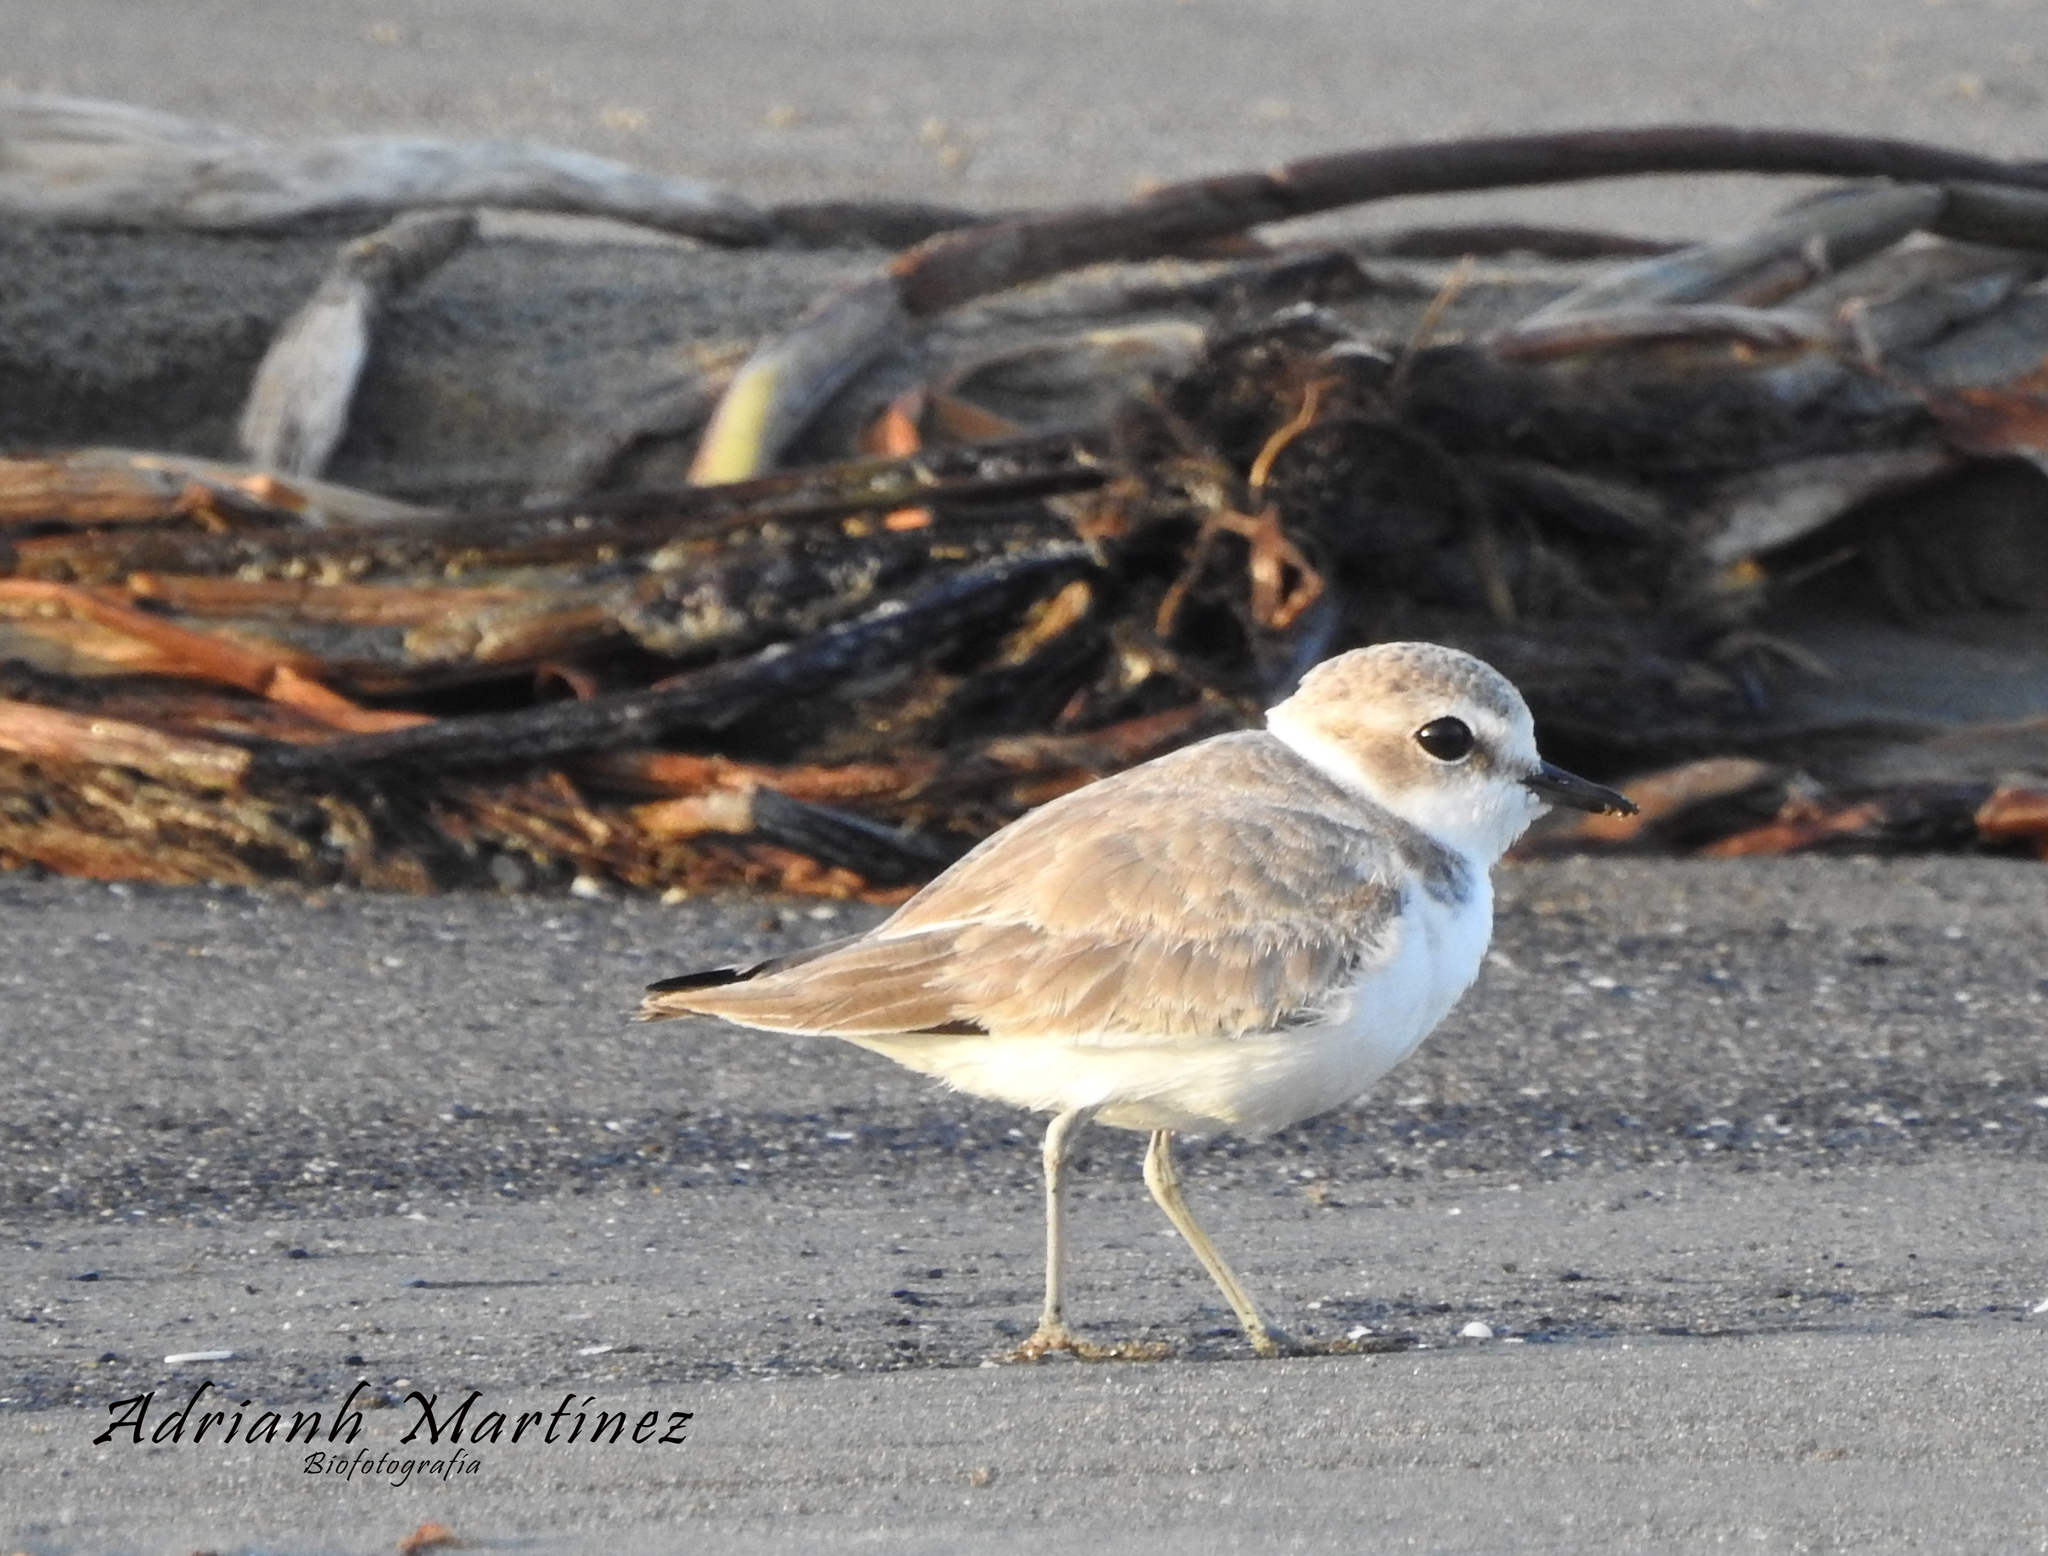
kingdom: Animalia
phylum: Chordata
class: Aves
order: Charadriiformes
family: Charadriidae
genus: Anarhynchus
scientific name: Anarhynchus
